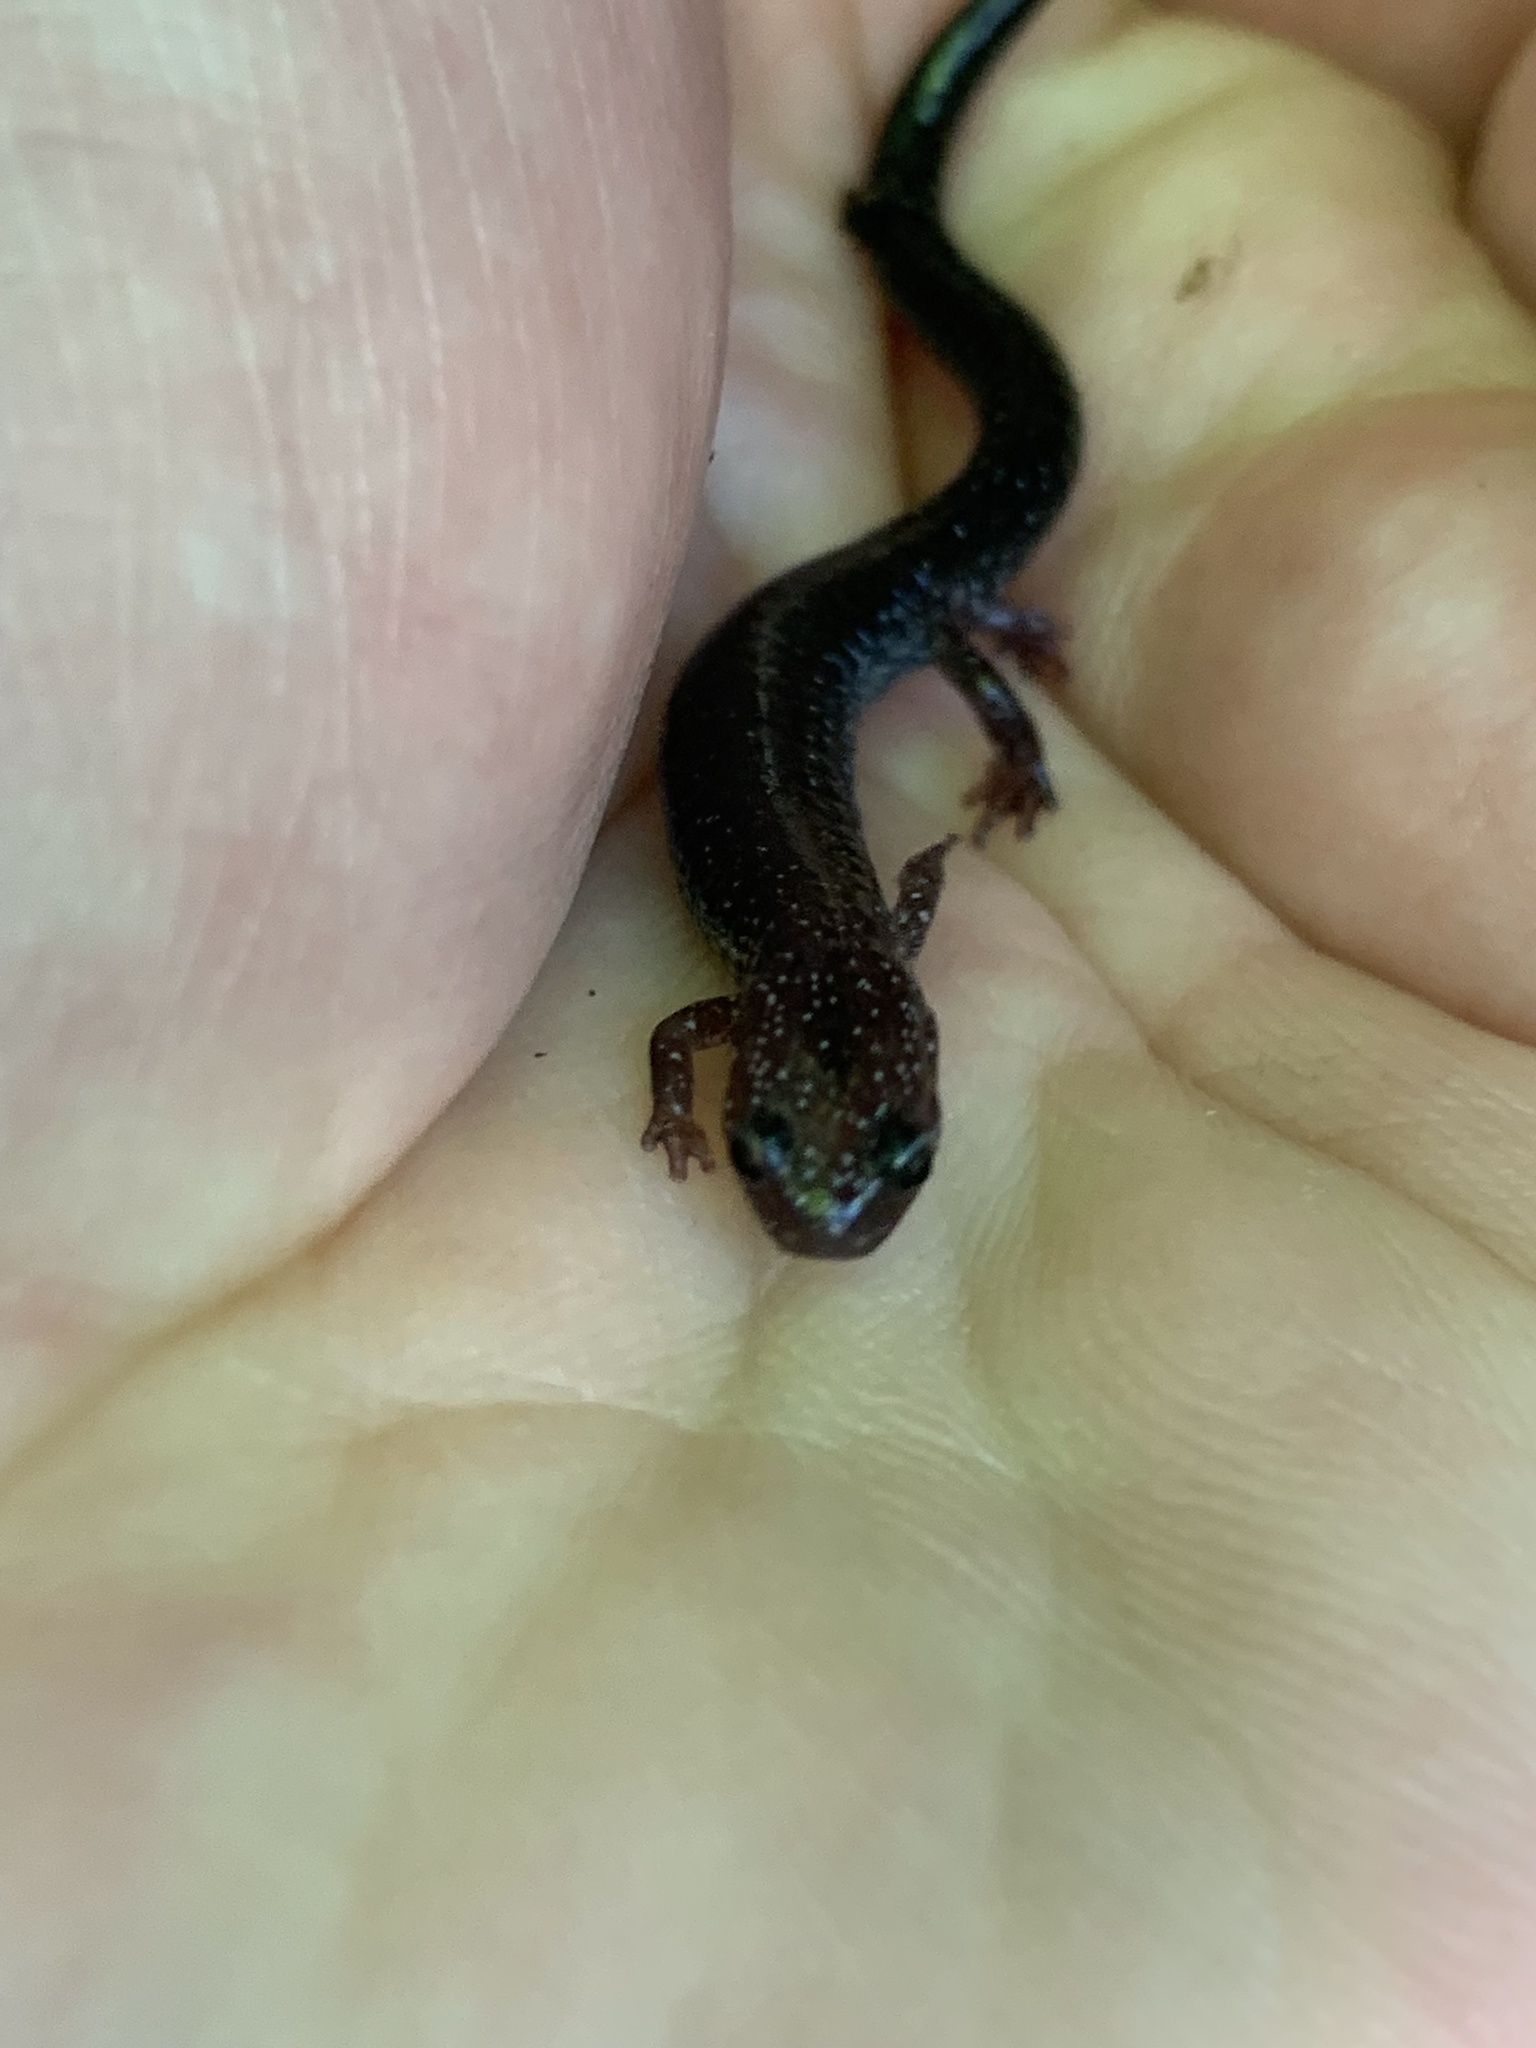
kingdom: Animalia
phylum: Chordata
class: Amphibia
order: Caudata
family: Plethodontidae
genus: Plethodon
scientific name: Plethodon cinereus
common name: Redback salamander
